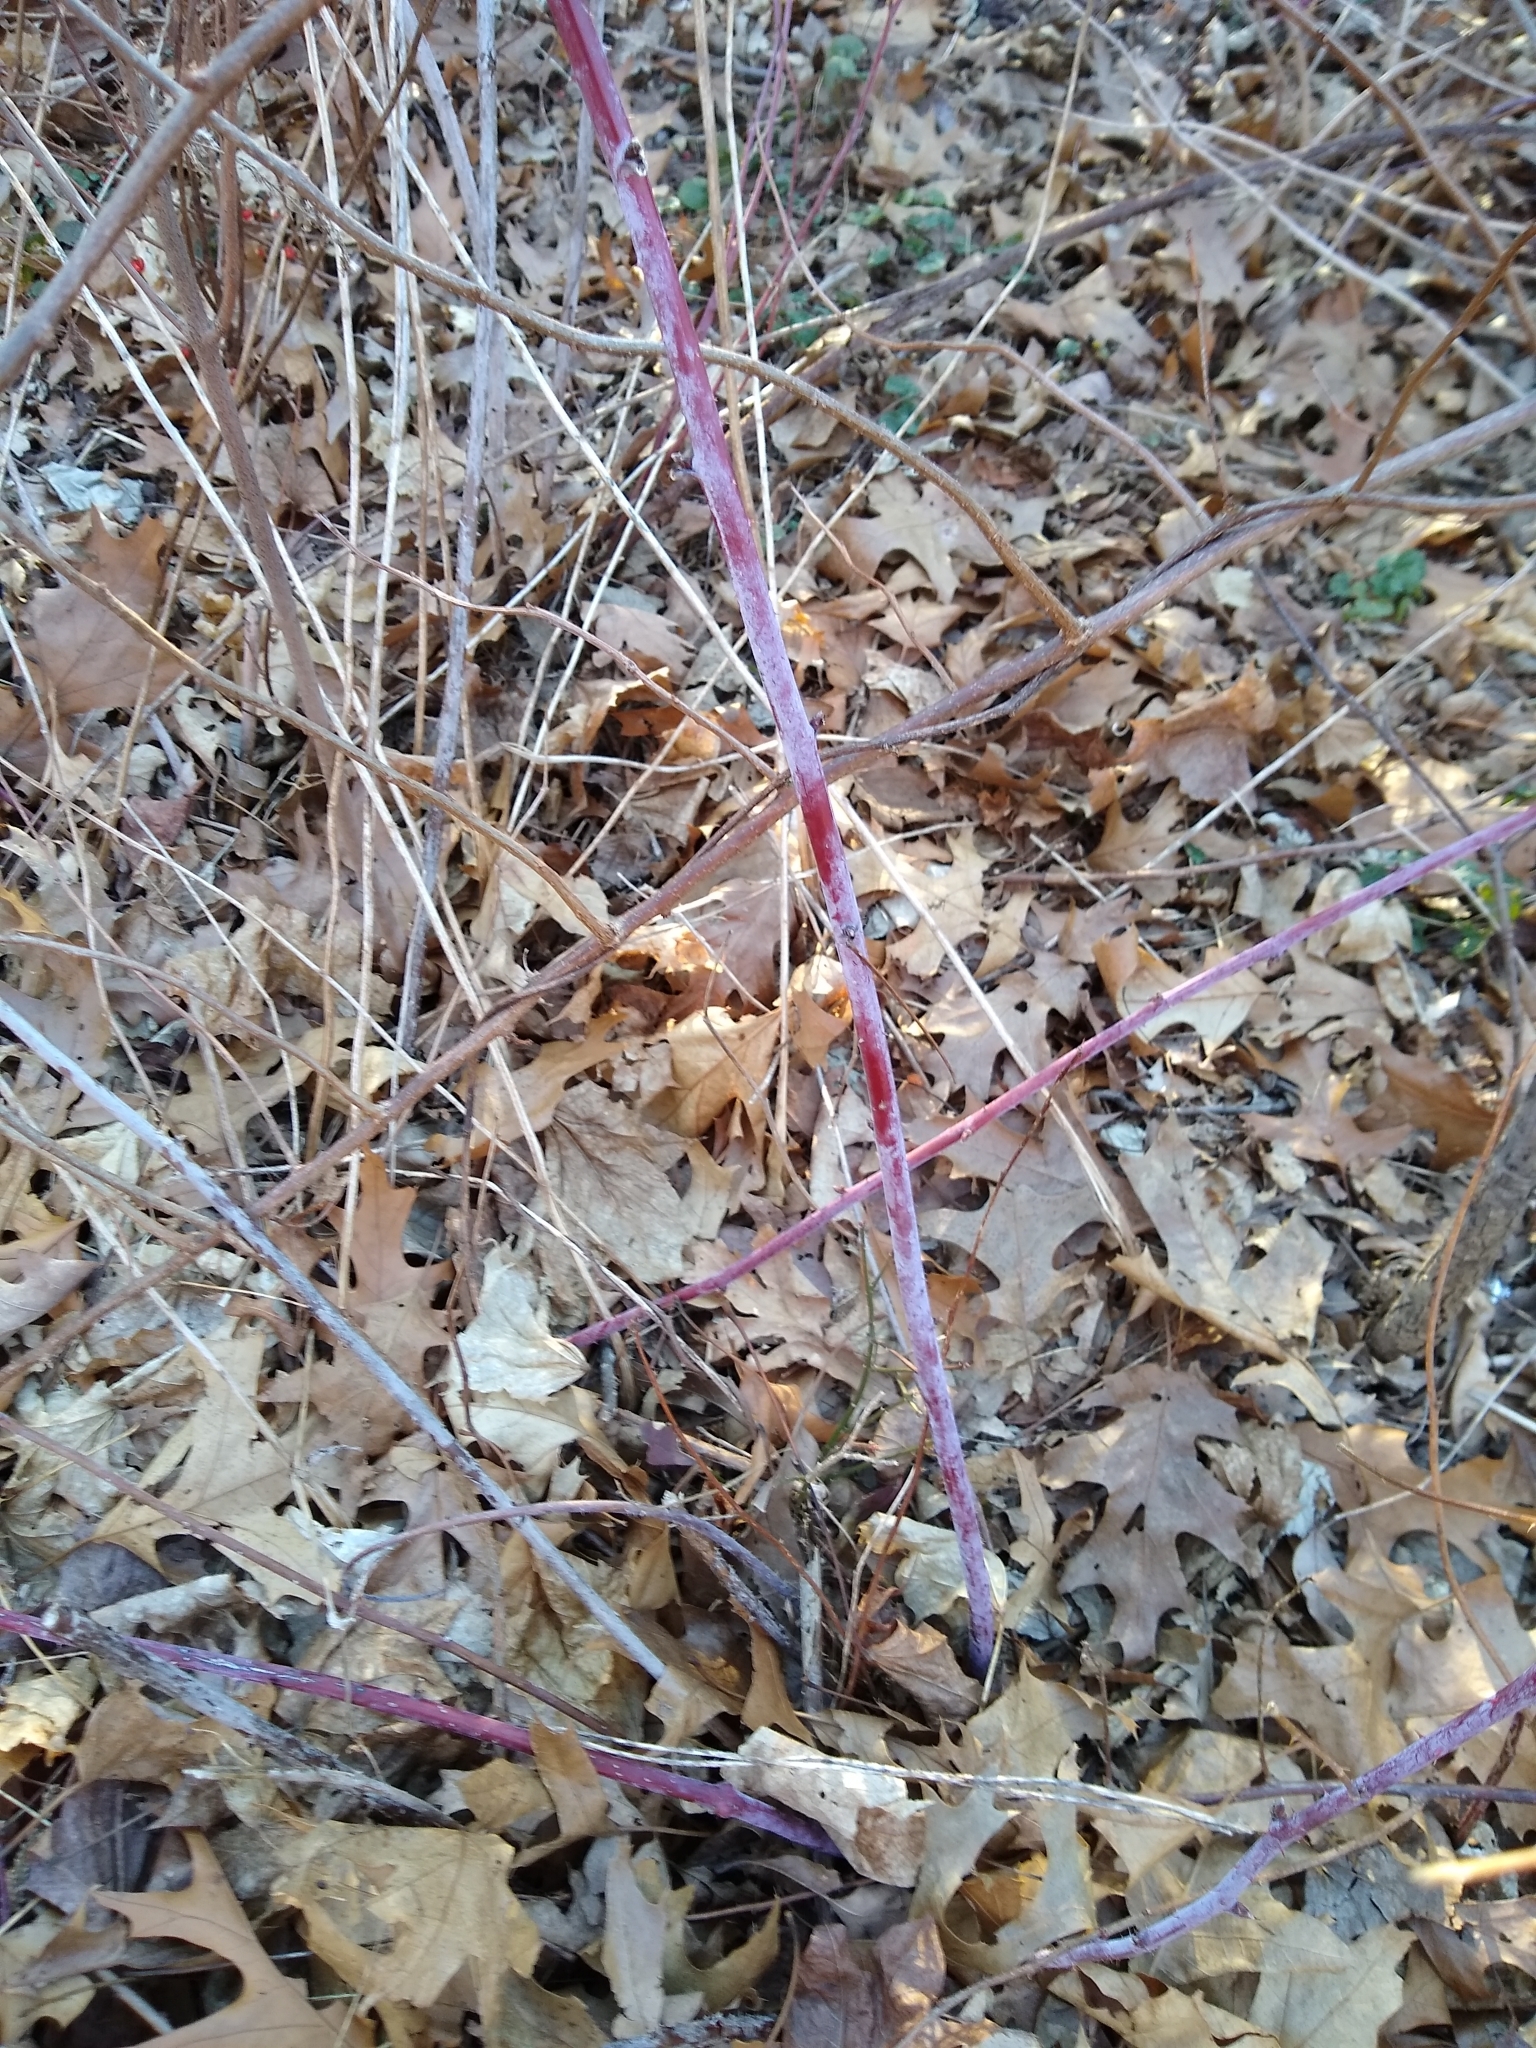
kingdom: Plantae
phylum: Tracheophyta
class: Magnoliopsida
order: Rosales
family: Rosaceae
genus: Rubus
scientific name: Rubus occidentalis
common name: Black raspberry
